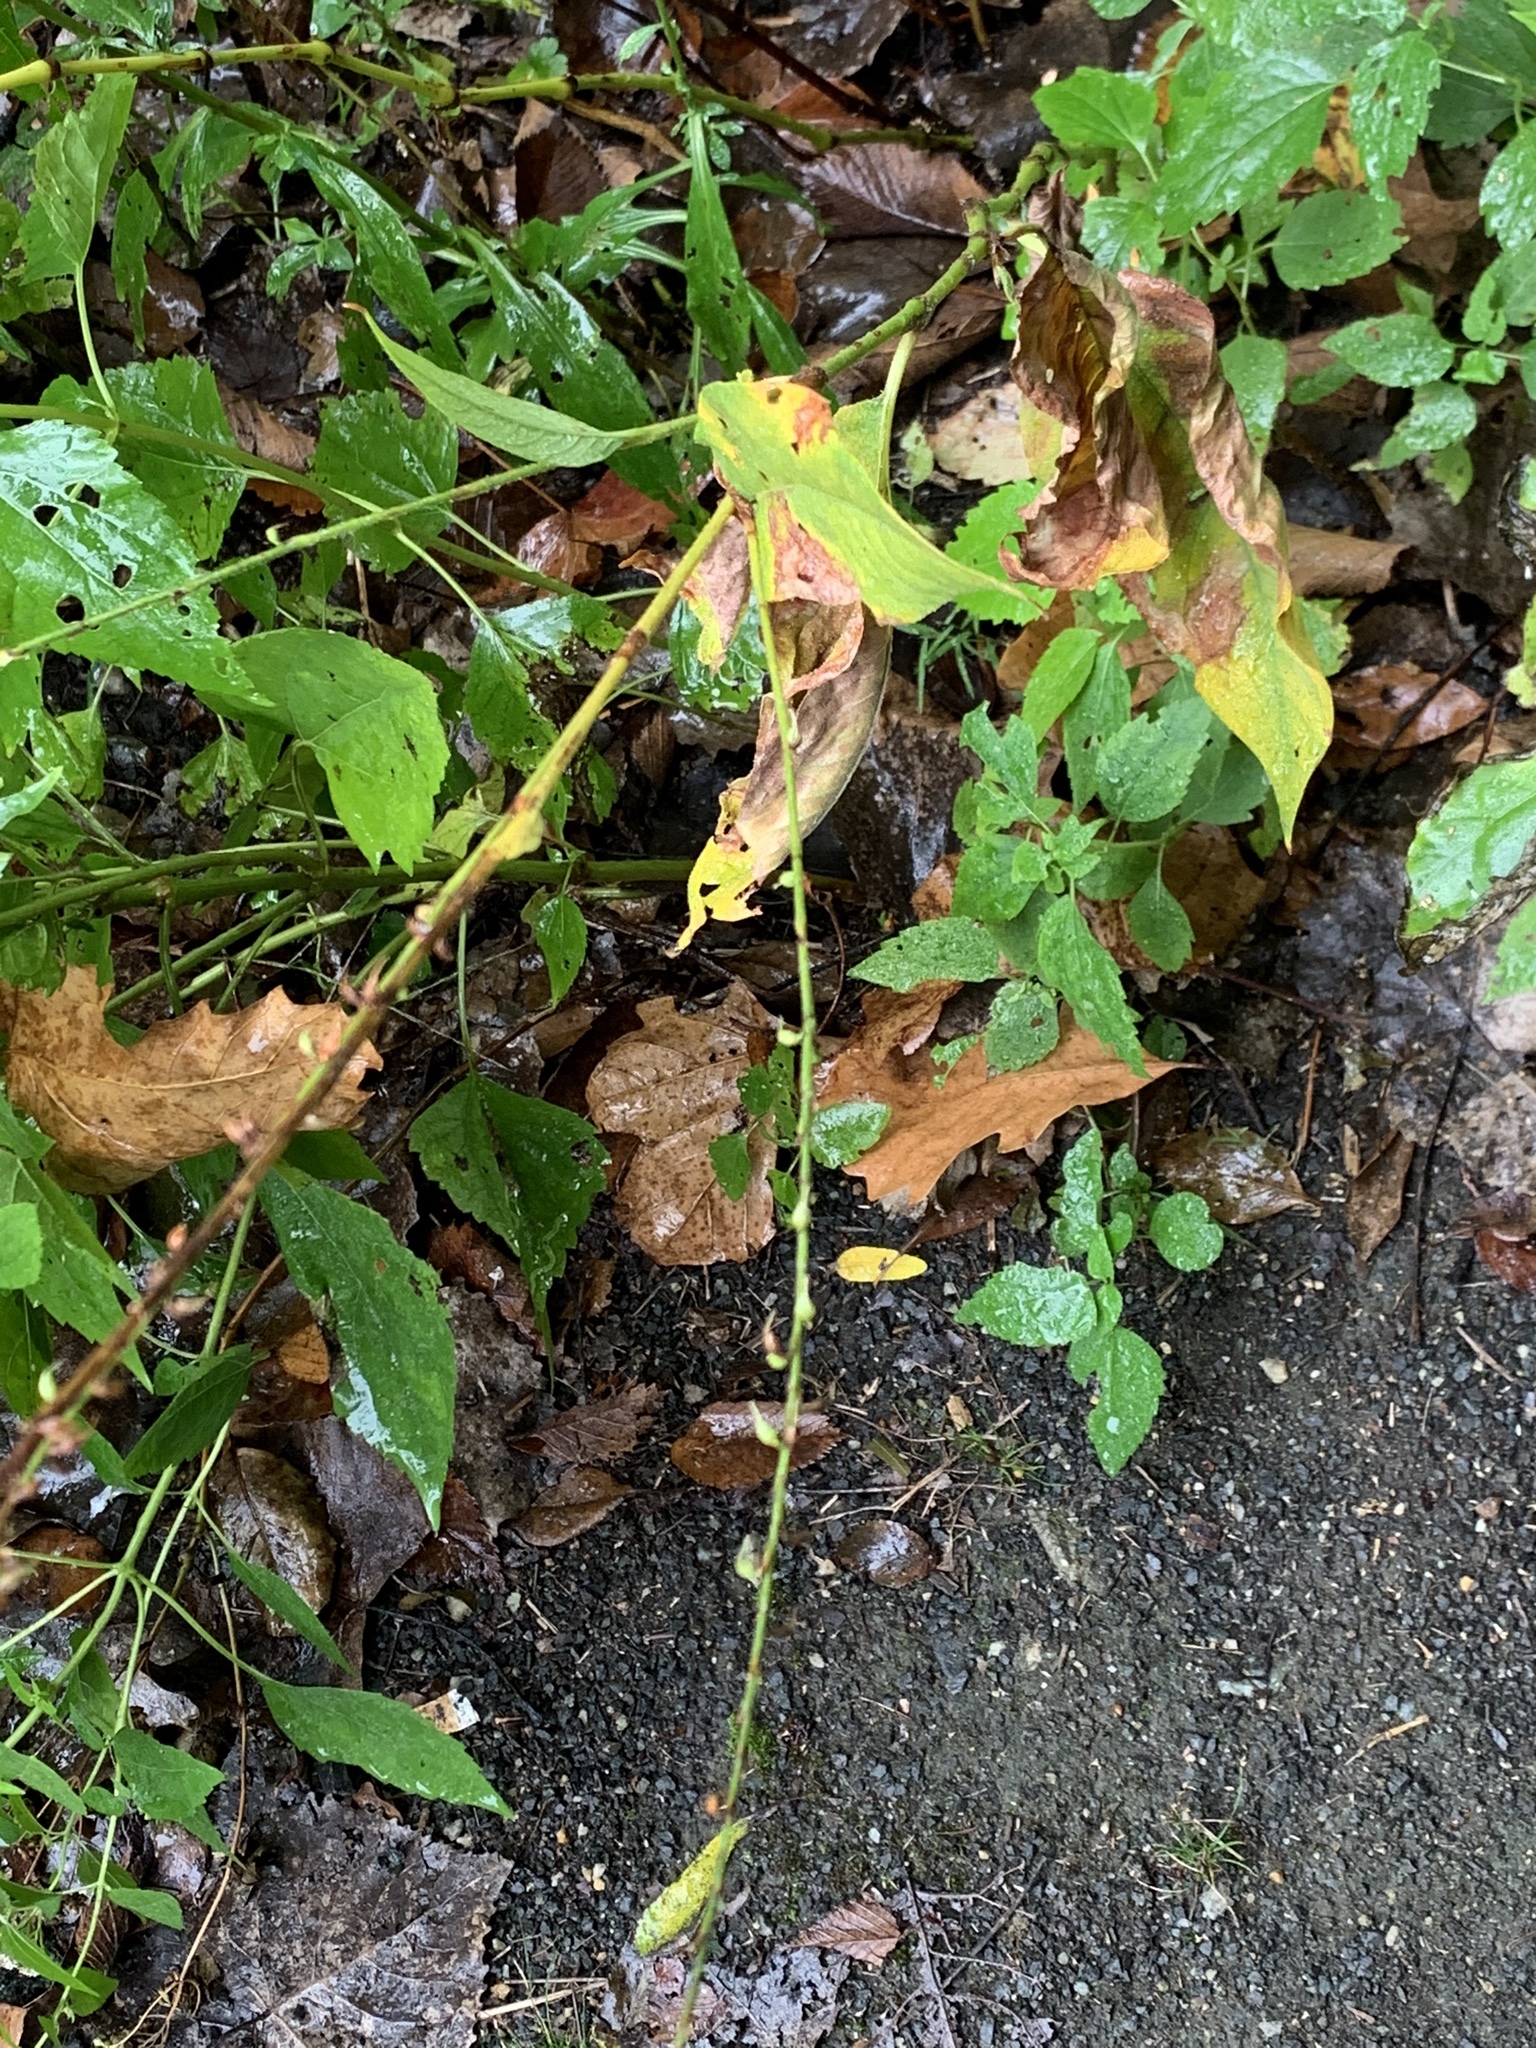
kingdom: Plantae
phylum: Tracheophyta
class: Magnoliopsida
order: Caryophyllales
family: Polygonaceae
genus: Persicaria
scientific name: Persicaria virginiana
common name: Jumpseed
